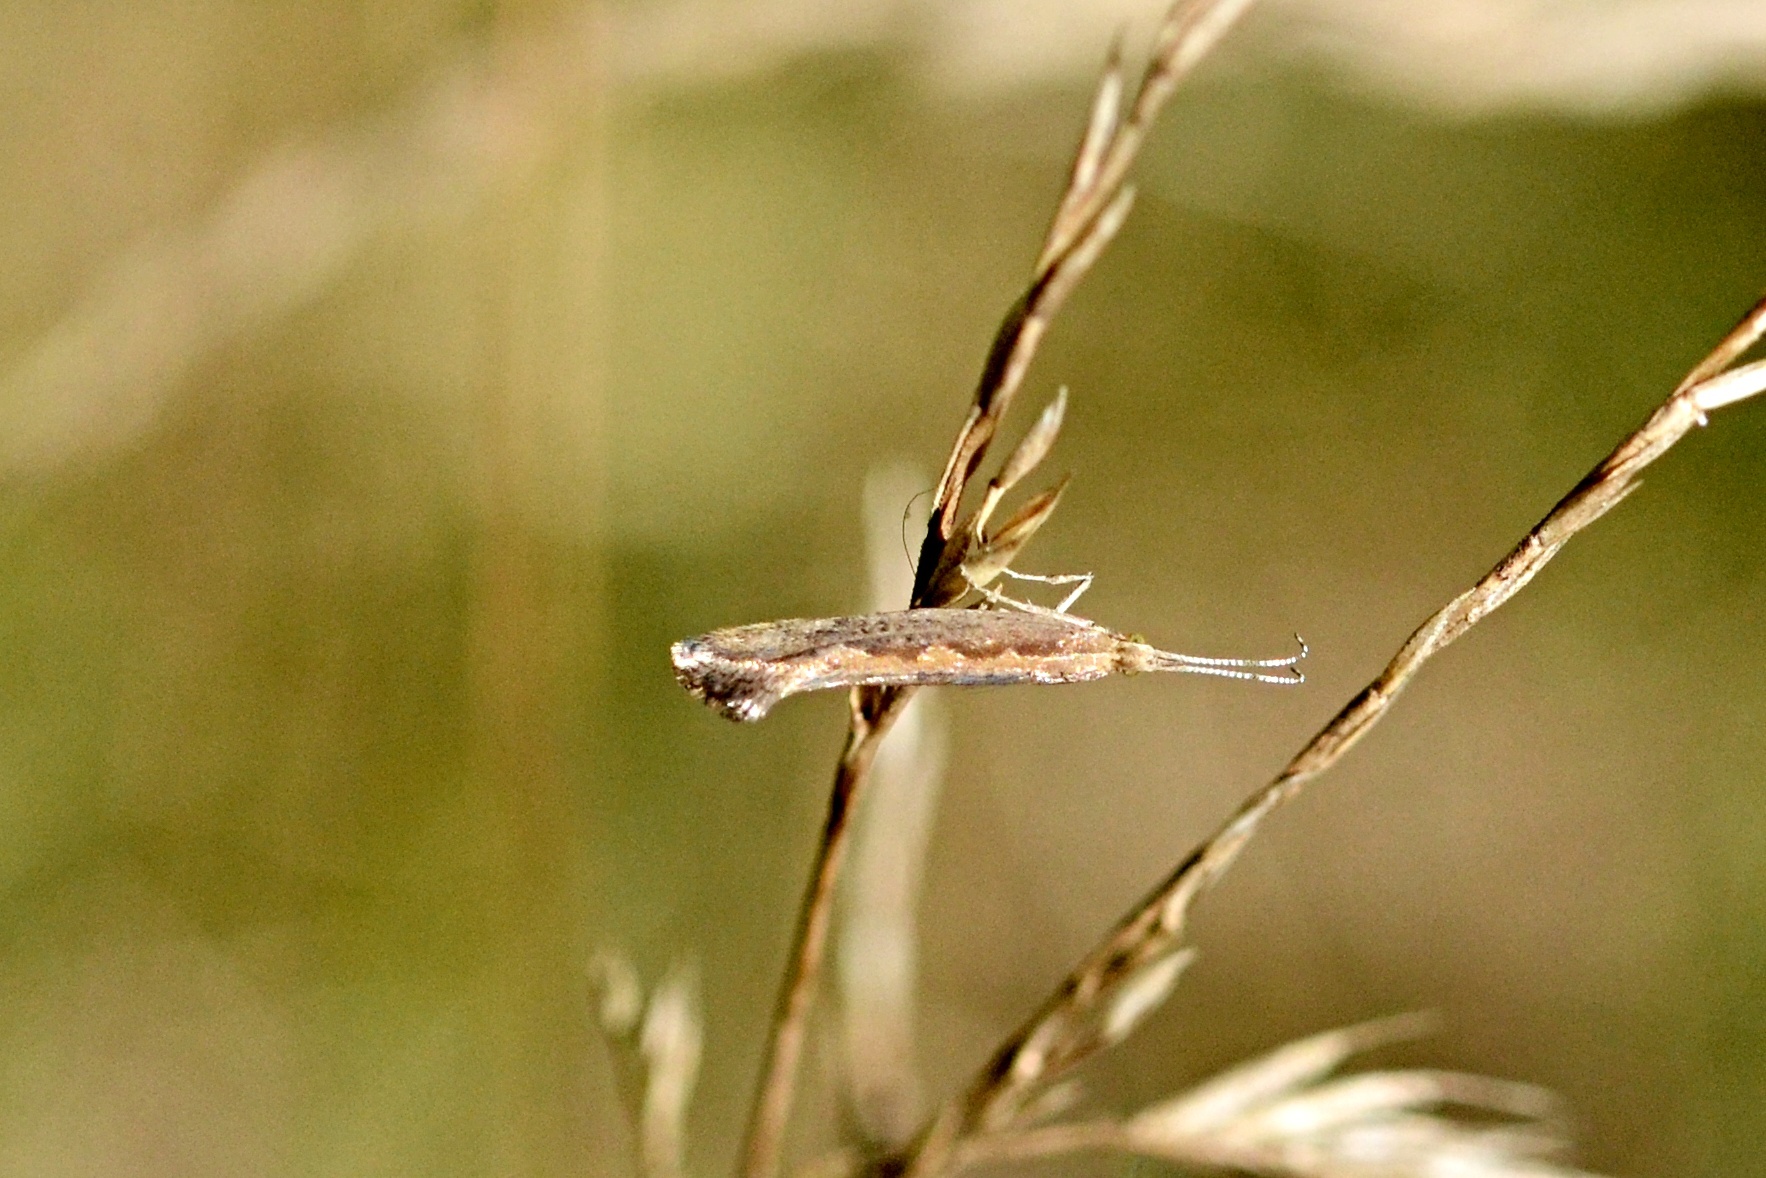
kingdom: Animalia
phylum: Arthropoda
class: Insecta
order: Lepidoptera
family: Plutellidae
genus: Plutella
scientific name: Plutella xylostella
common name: Diamond-back moth
